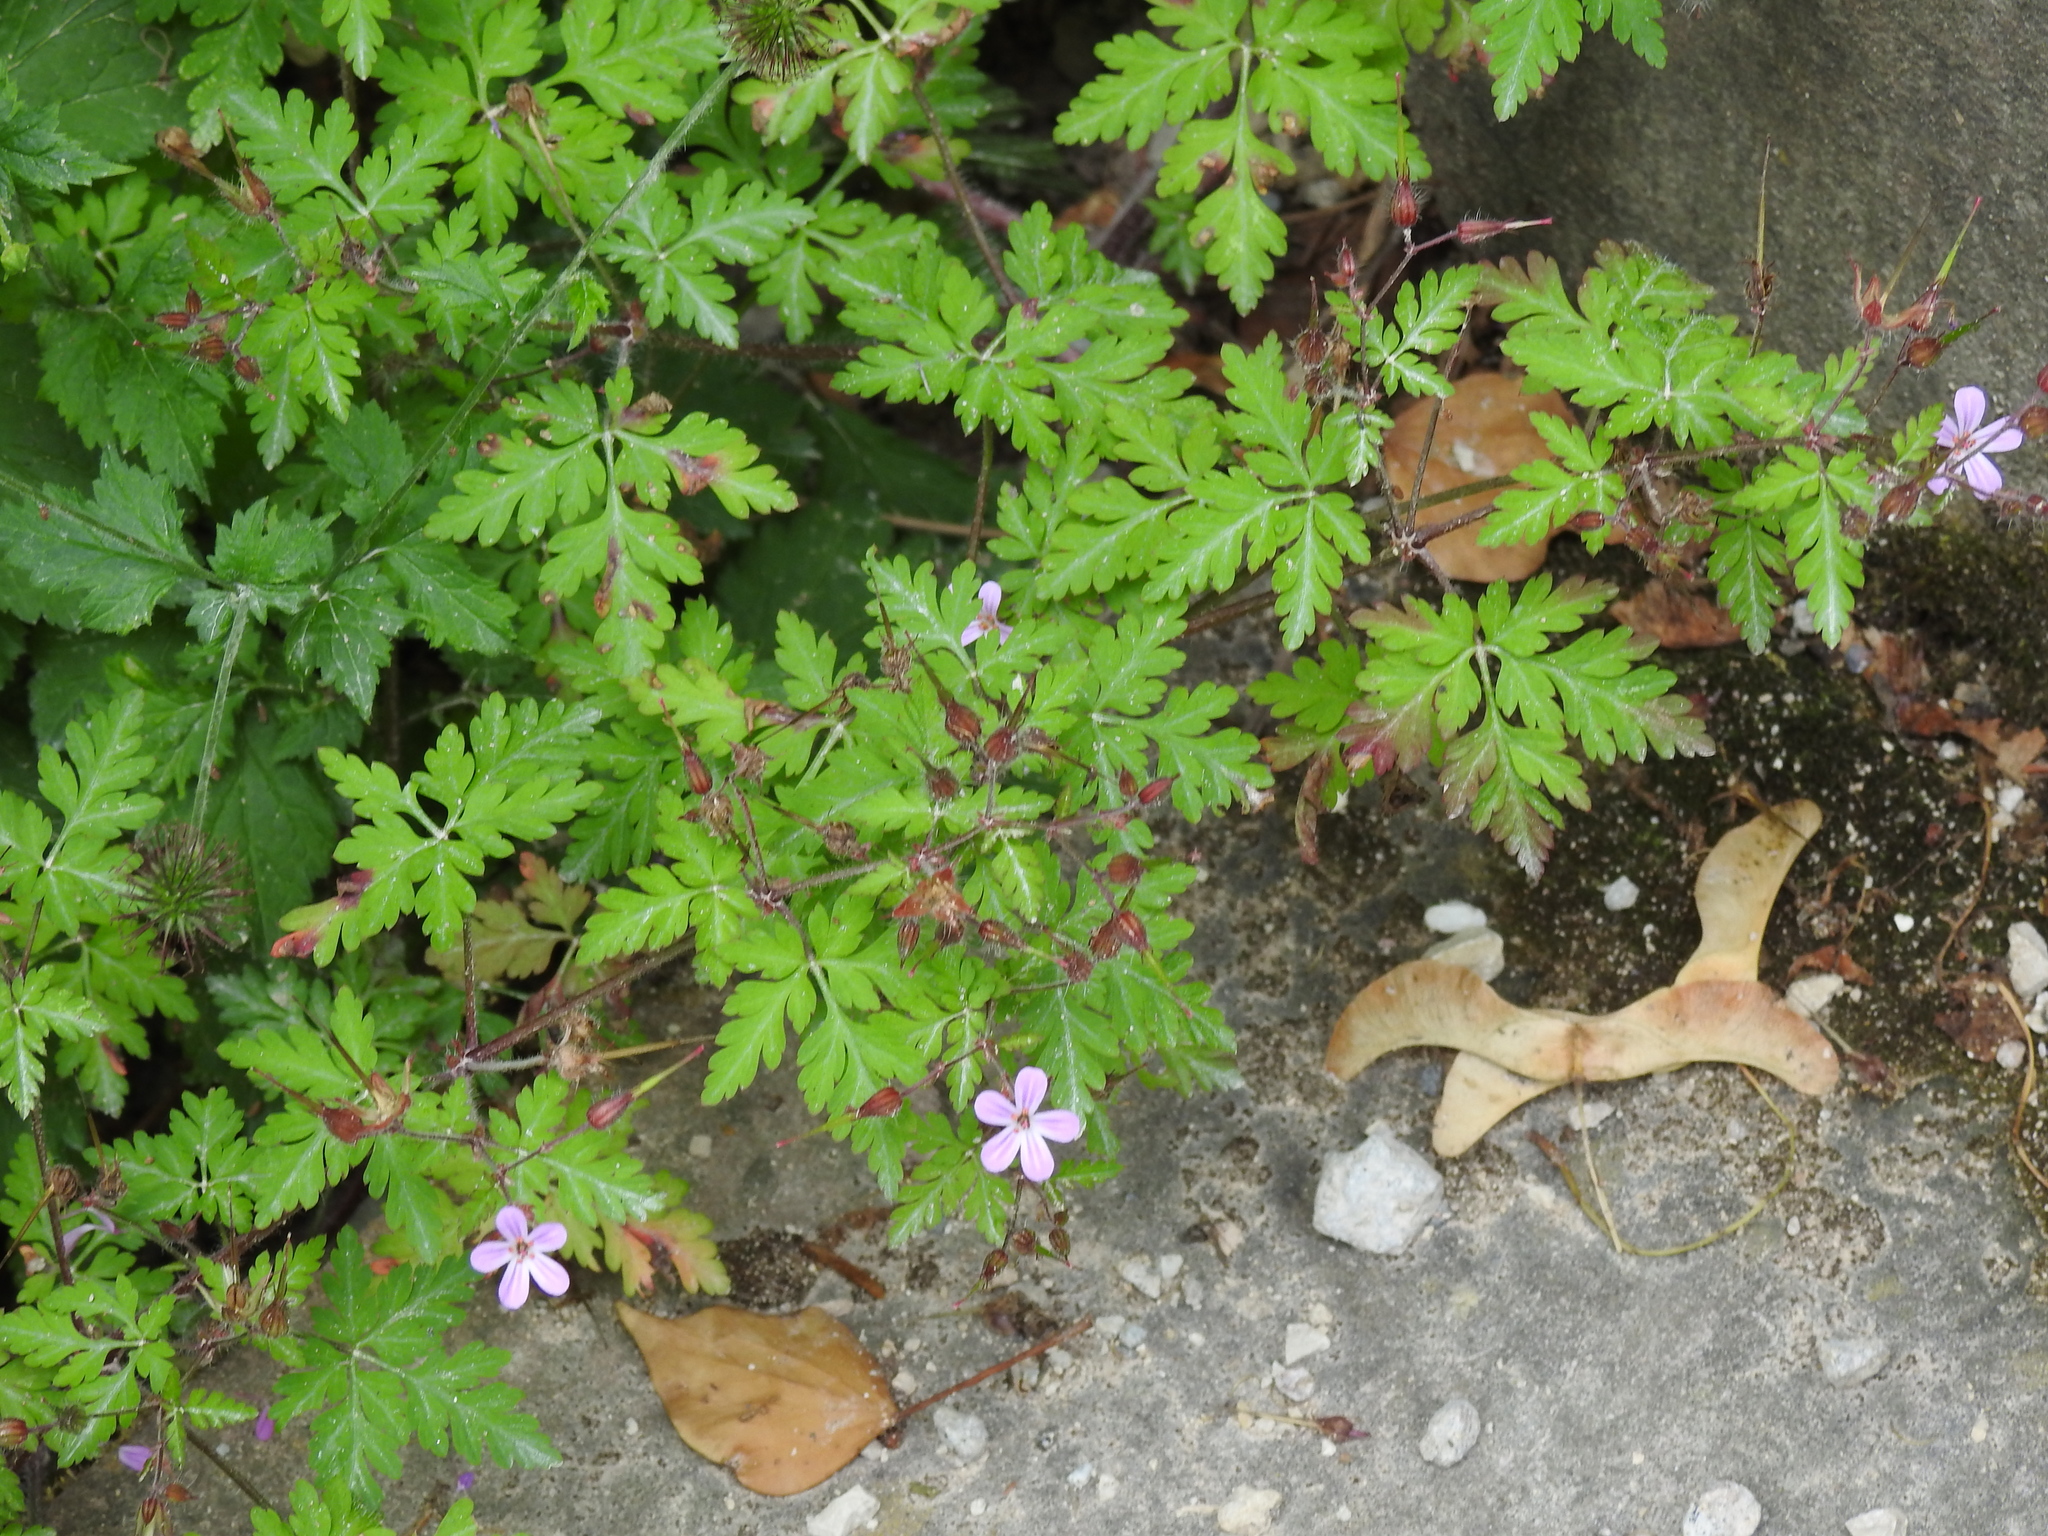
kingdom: Plantae
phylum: Tracheophyta
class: Magnoliopsida
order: Geraniales
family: Geraniaceae
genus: Geranium
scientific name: Geranium robertianum
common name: Herb-robert
